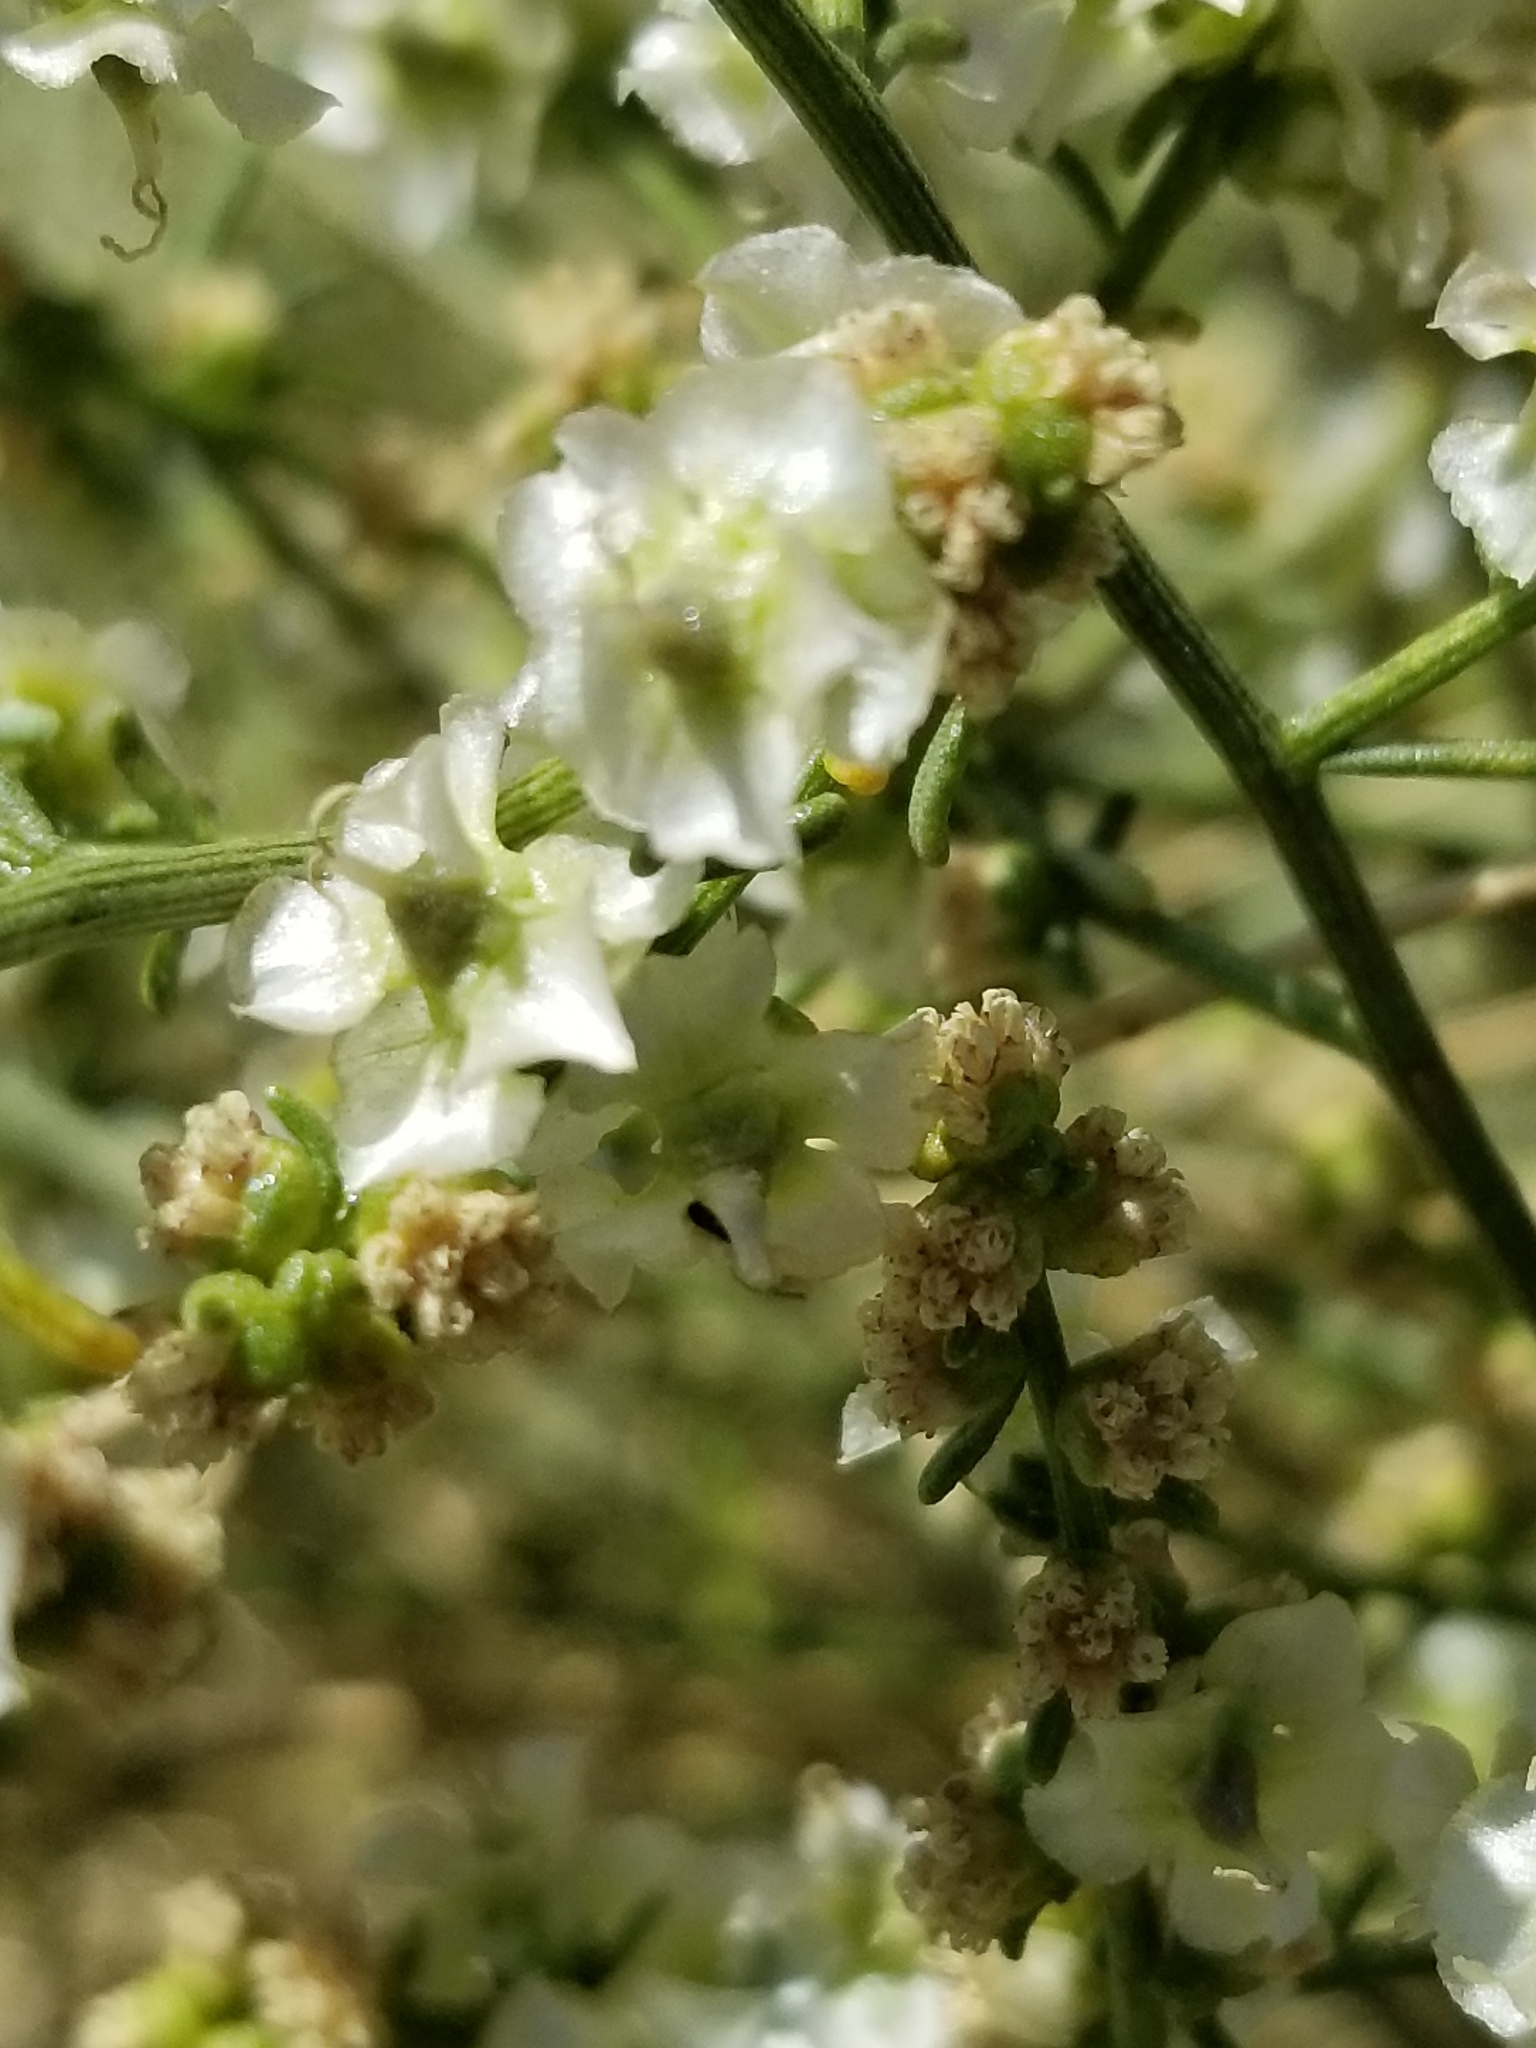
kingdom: Plantae
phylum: Tracheophyta
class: Magnoliopsida
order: Asterales
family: Asteraceae
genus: Ambrosia
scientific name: Ambrosia salsola
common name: Burrobrush
